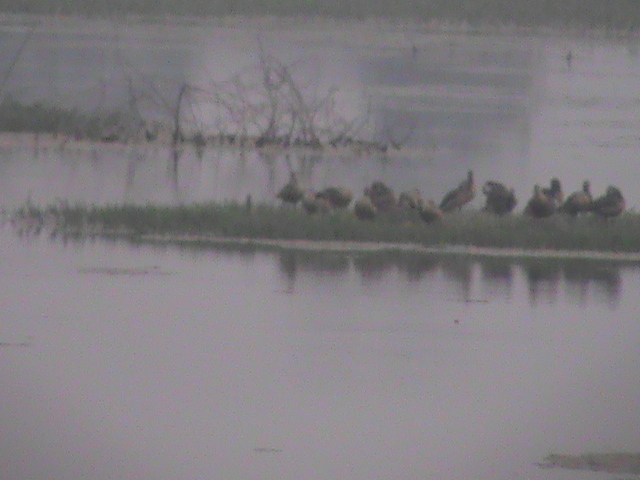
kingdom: Animalia
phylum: Chordata
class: Aves
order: Anseriformes
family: Anatidae
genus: Dendrocygna
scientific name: Dendrocygna javanica
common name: Lesser whistling-duck
